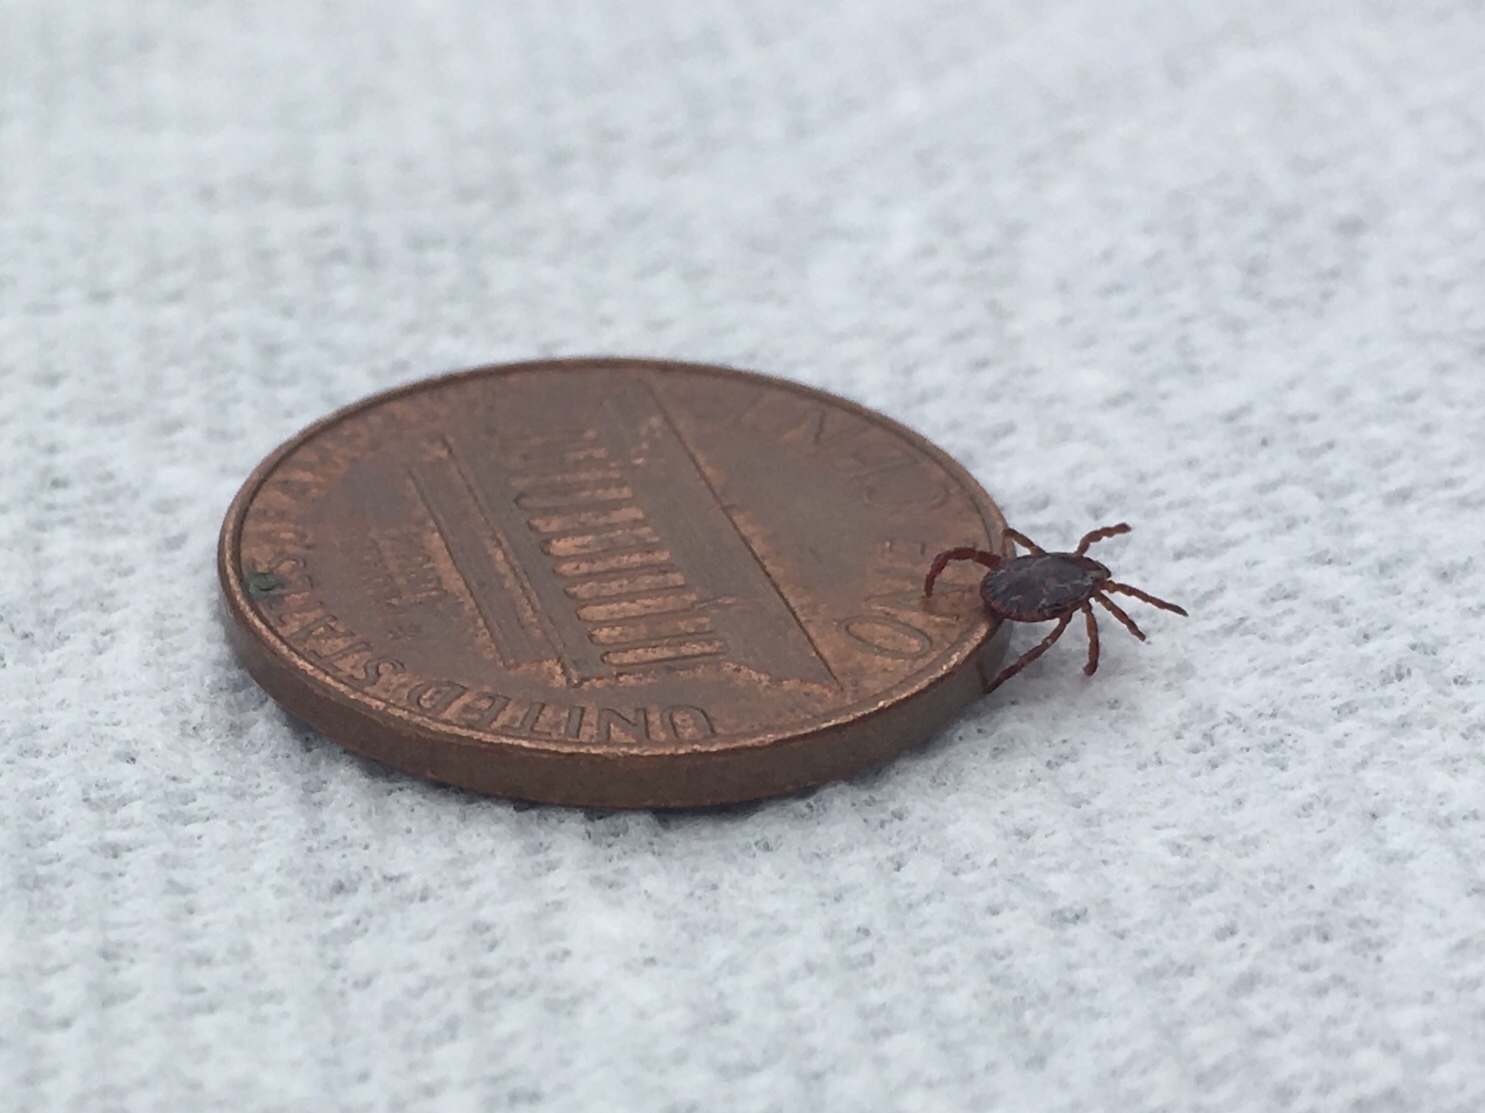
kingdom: Animalia
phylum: Arthropoda
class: Arachnida
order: Ixodida
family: Ixodidae
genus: Dermacentor
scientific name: Dermacentor variabilis
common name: American dog tick
